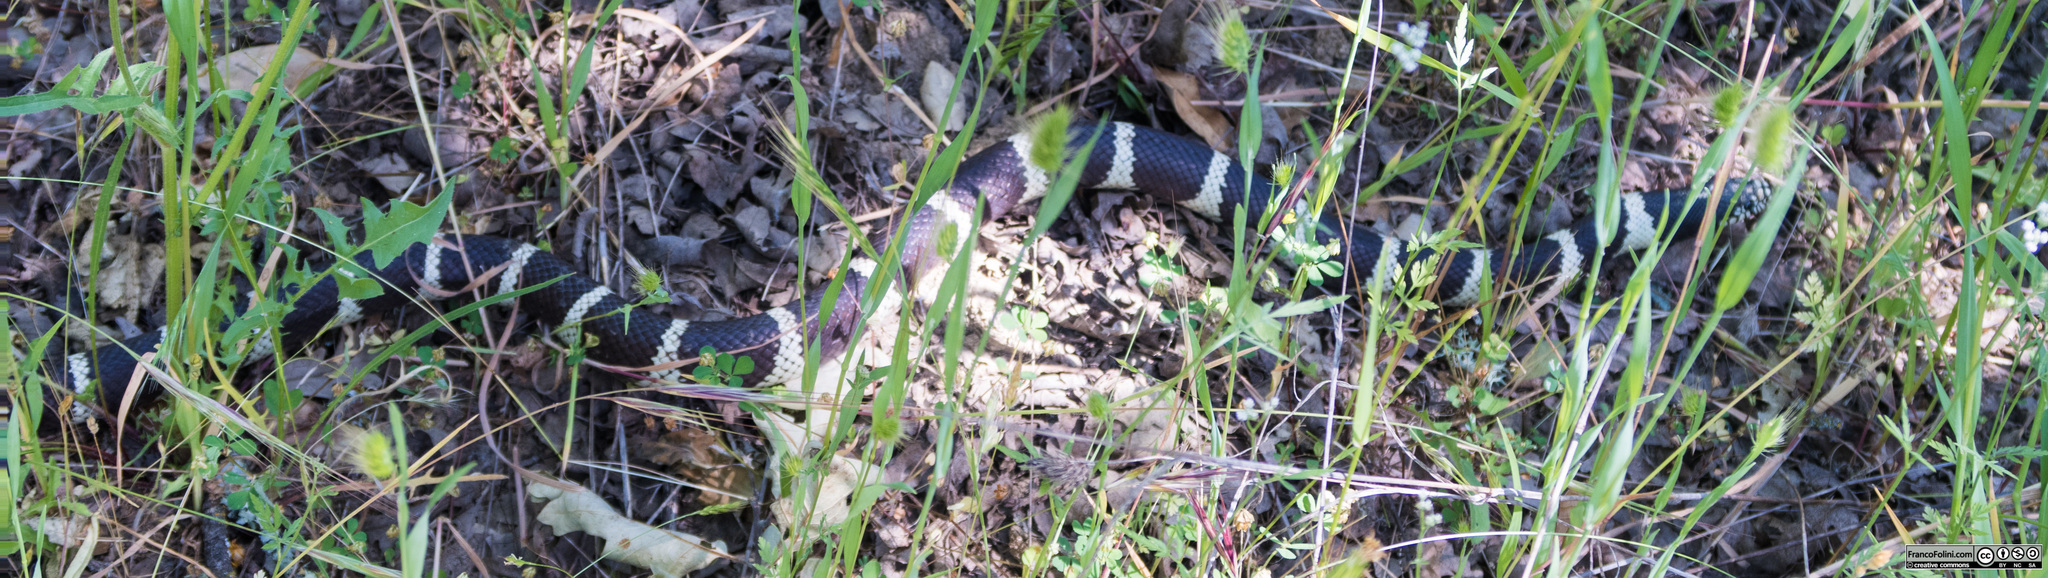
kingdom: Animalia
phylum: Chordata
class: Squamata
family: Colubridae
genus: Lampropeltis
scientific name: Lampropeltis californiae
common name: California kingsnake
